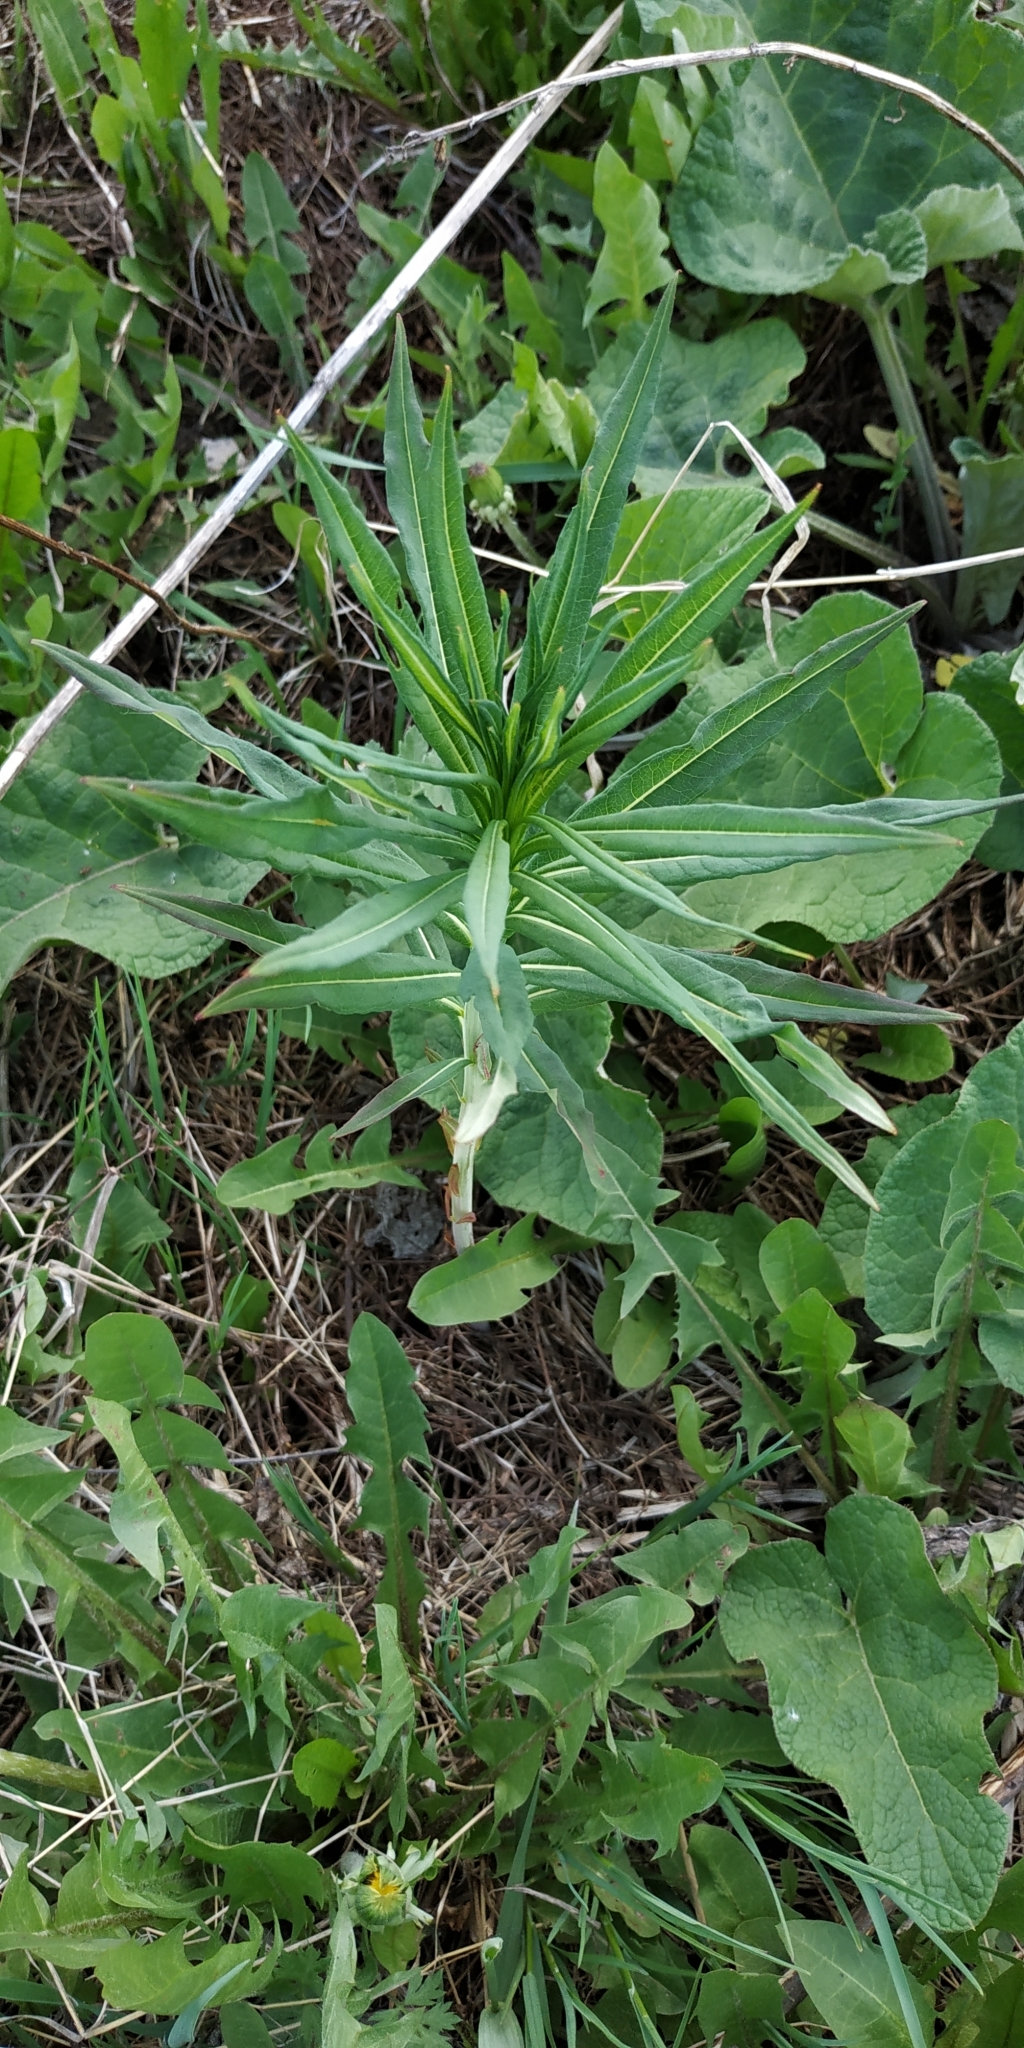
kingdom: Plantae
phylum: Tracheophyta
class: Magnoliopsida
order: Myrtales
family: Onagraceae
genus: Chamaenerion
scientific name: Chamaenerion angustifolium
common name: Fireweed
